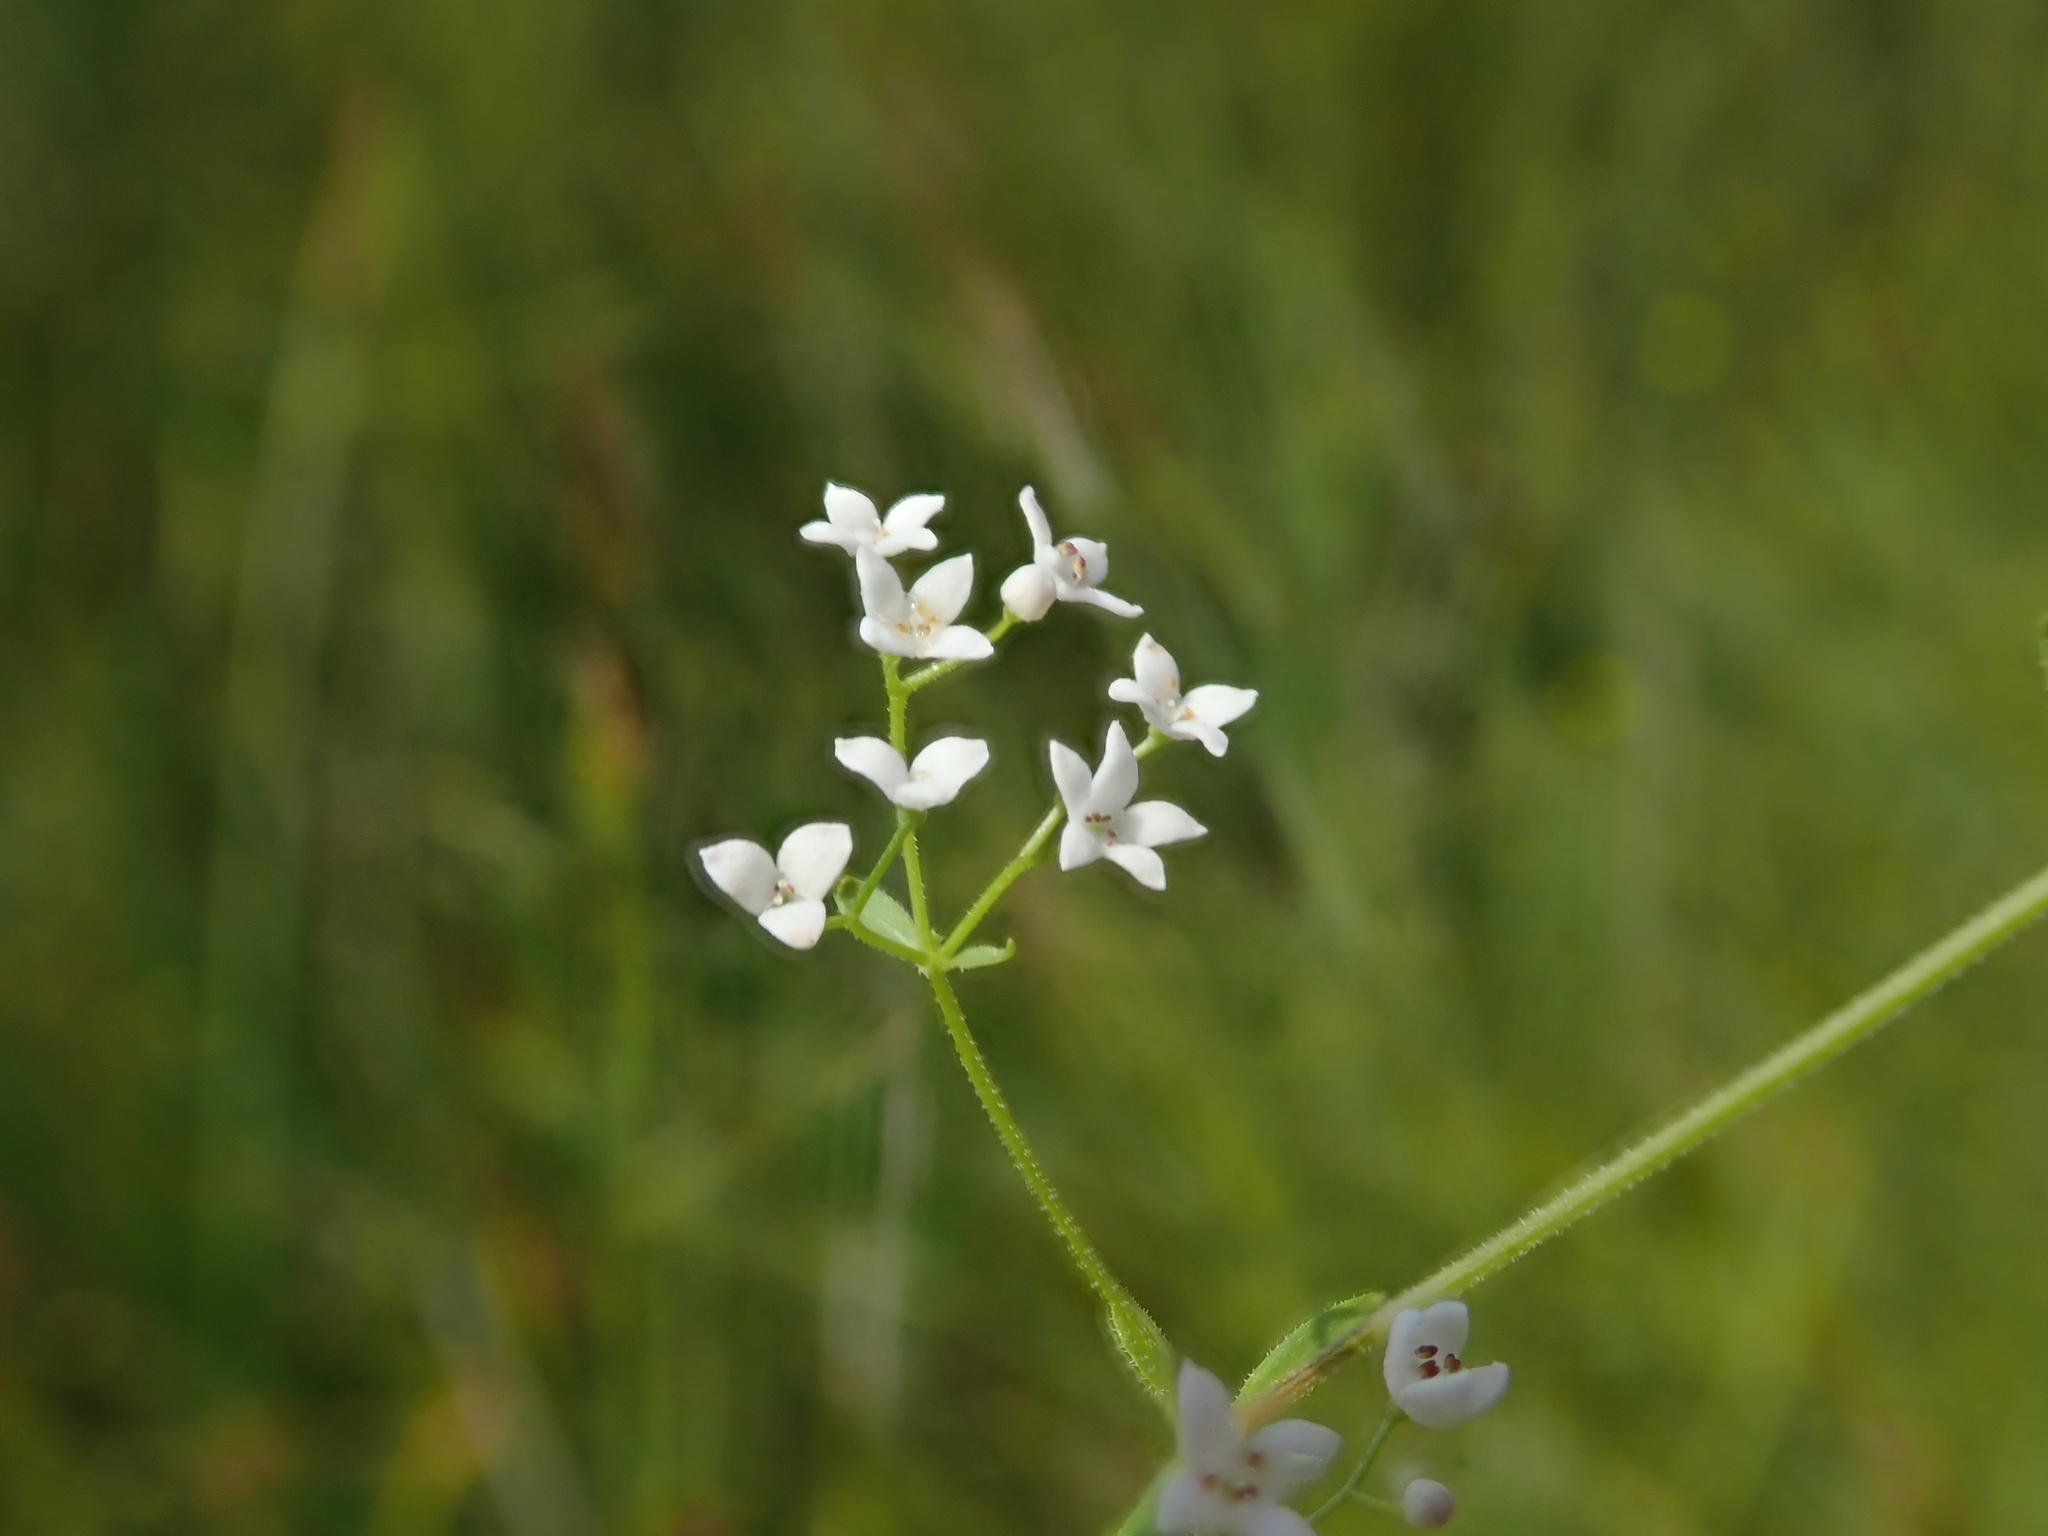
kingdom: Plantae
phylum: Tracheophyta
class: Magnoliopsida
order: Gentianales
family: Rubiaceae
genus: Galium
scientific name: Galium uliginosum
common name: Fen bedstraw
